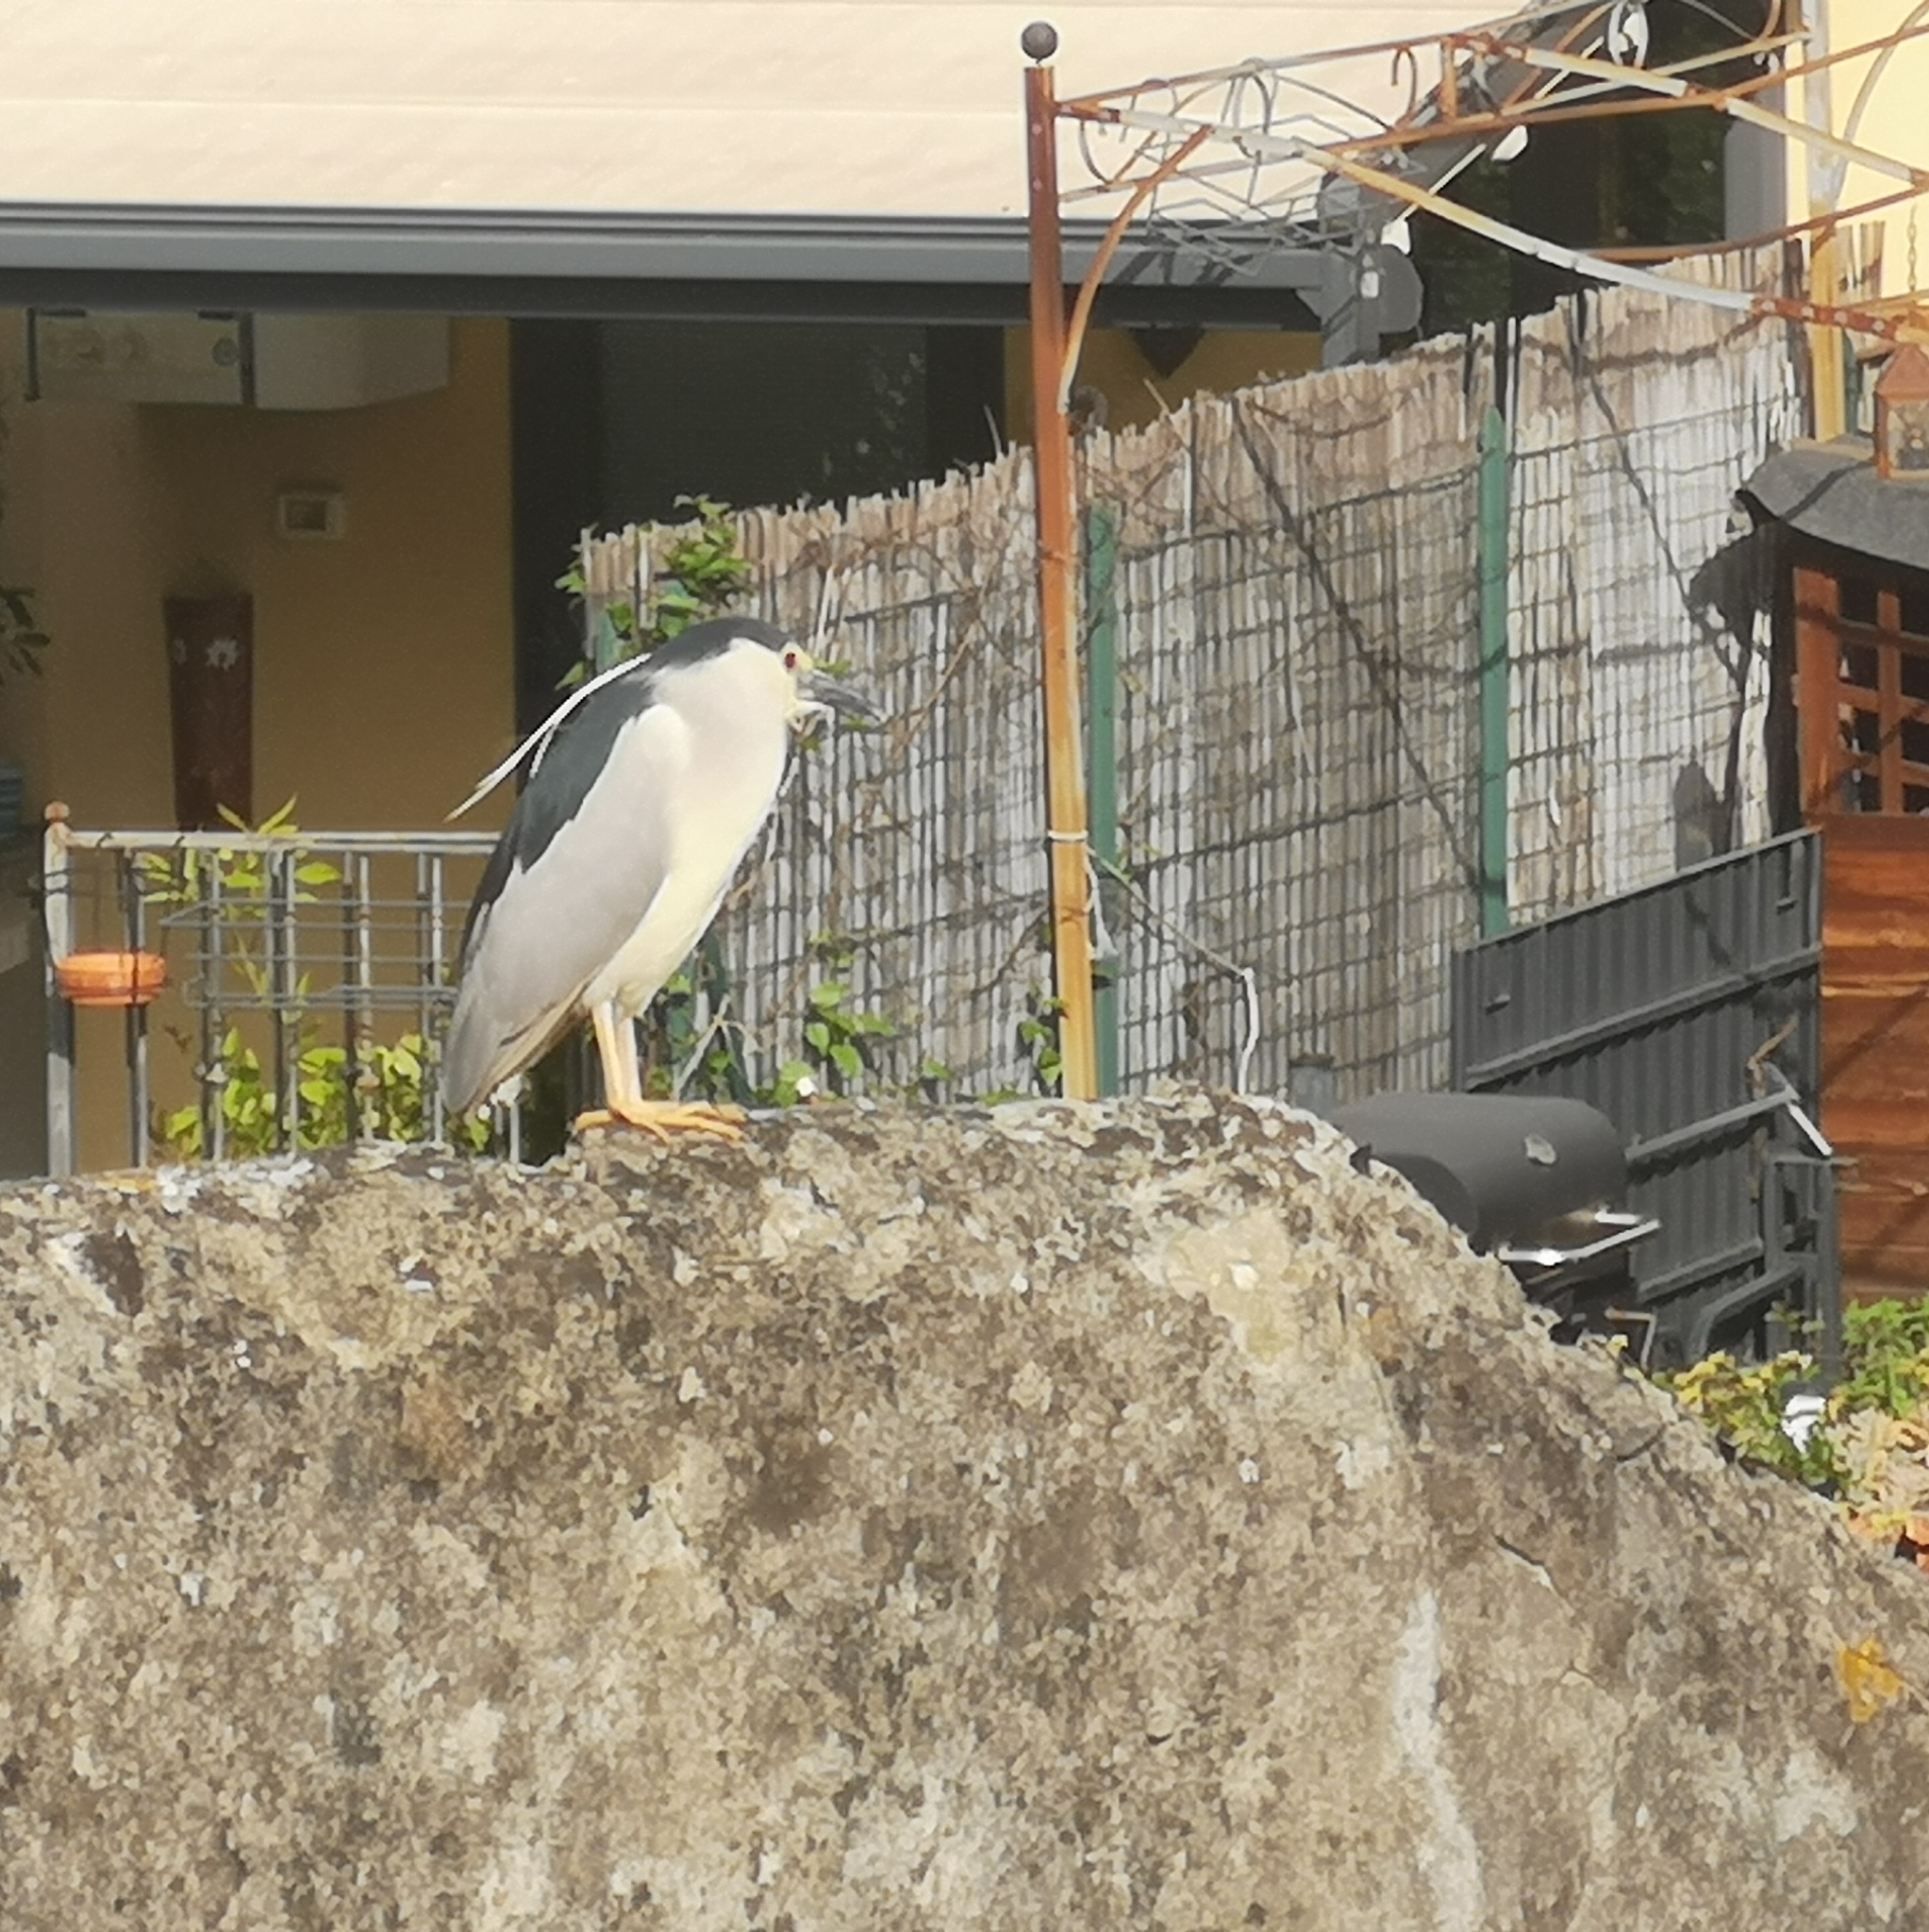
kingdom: Animalia
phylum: Chordata
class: Aves
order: Pelecaniformes
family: Ardeidae
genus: Nycticorax
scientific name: Nycticorax nycticorax
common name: Black-crowned night heron
